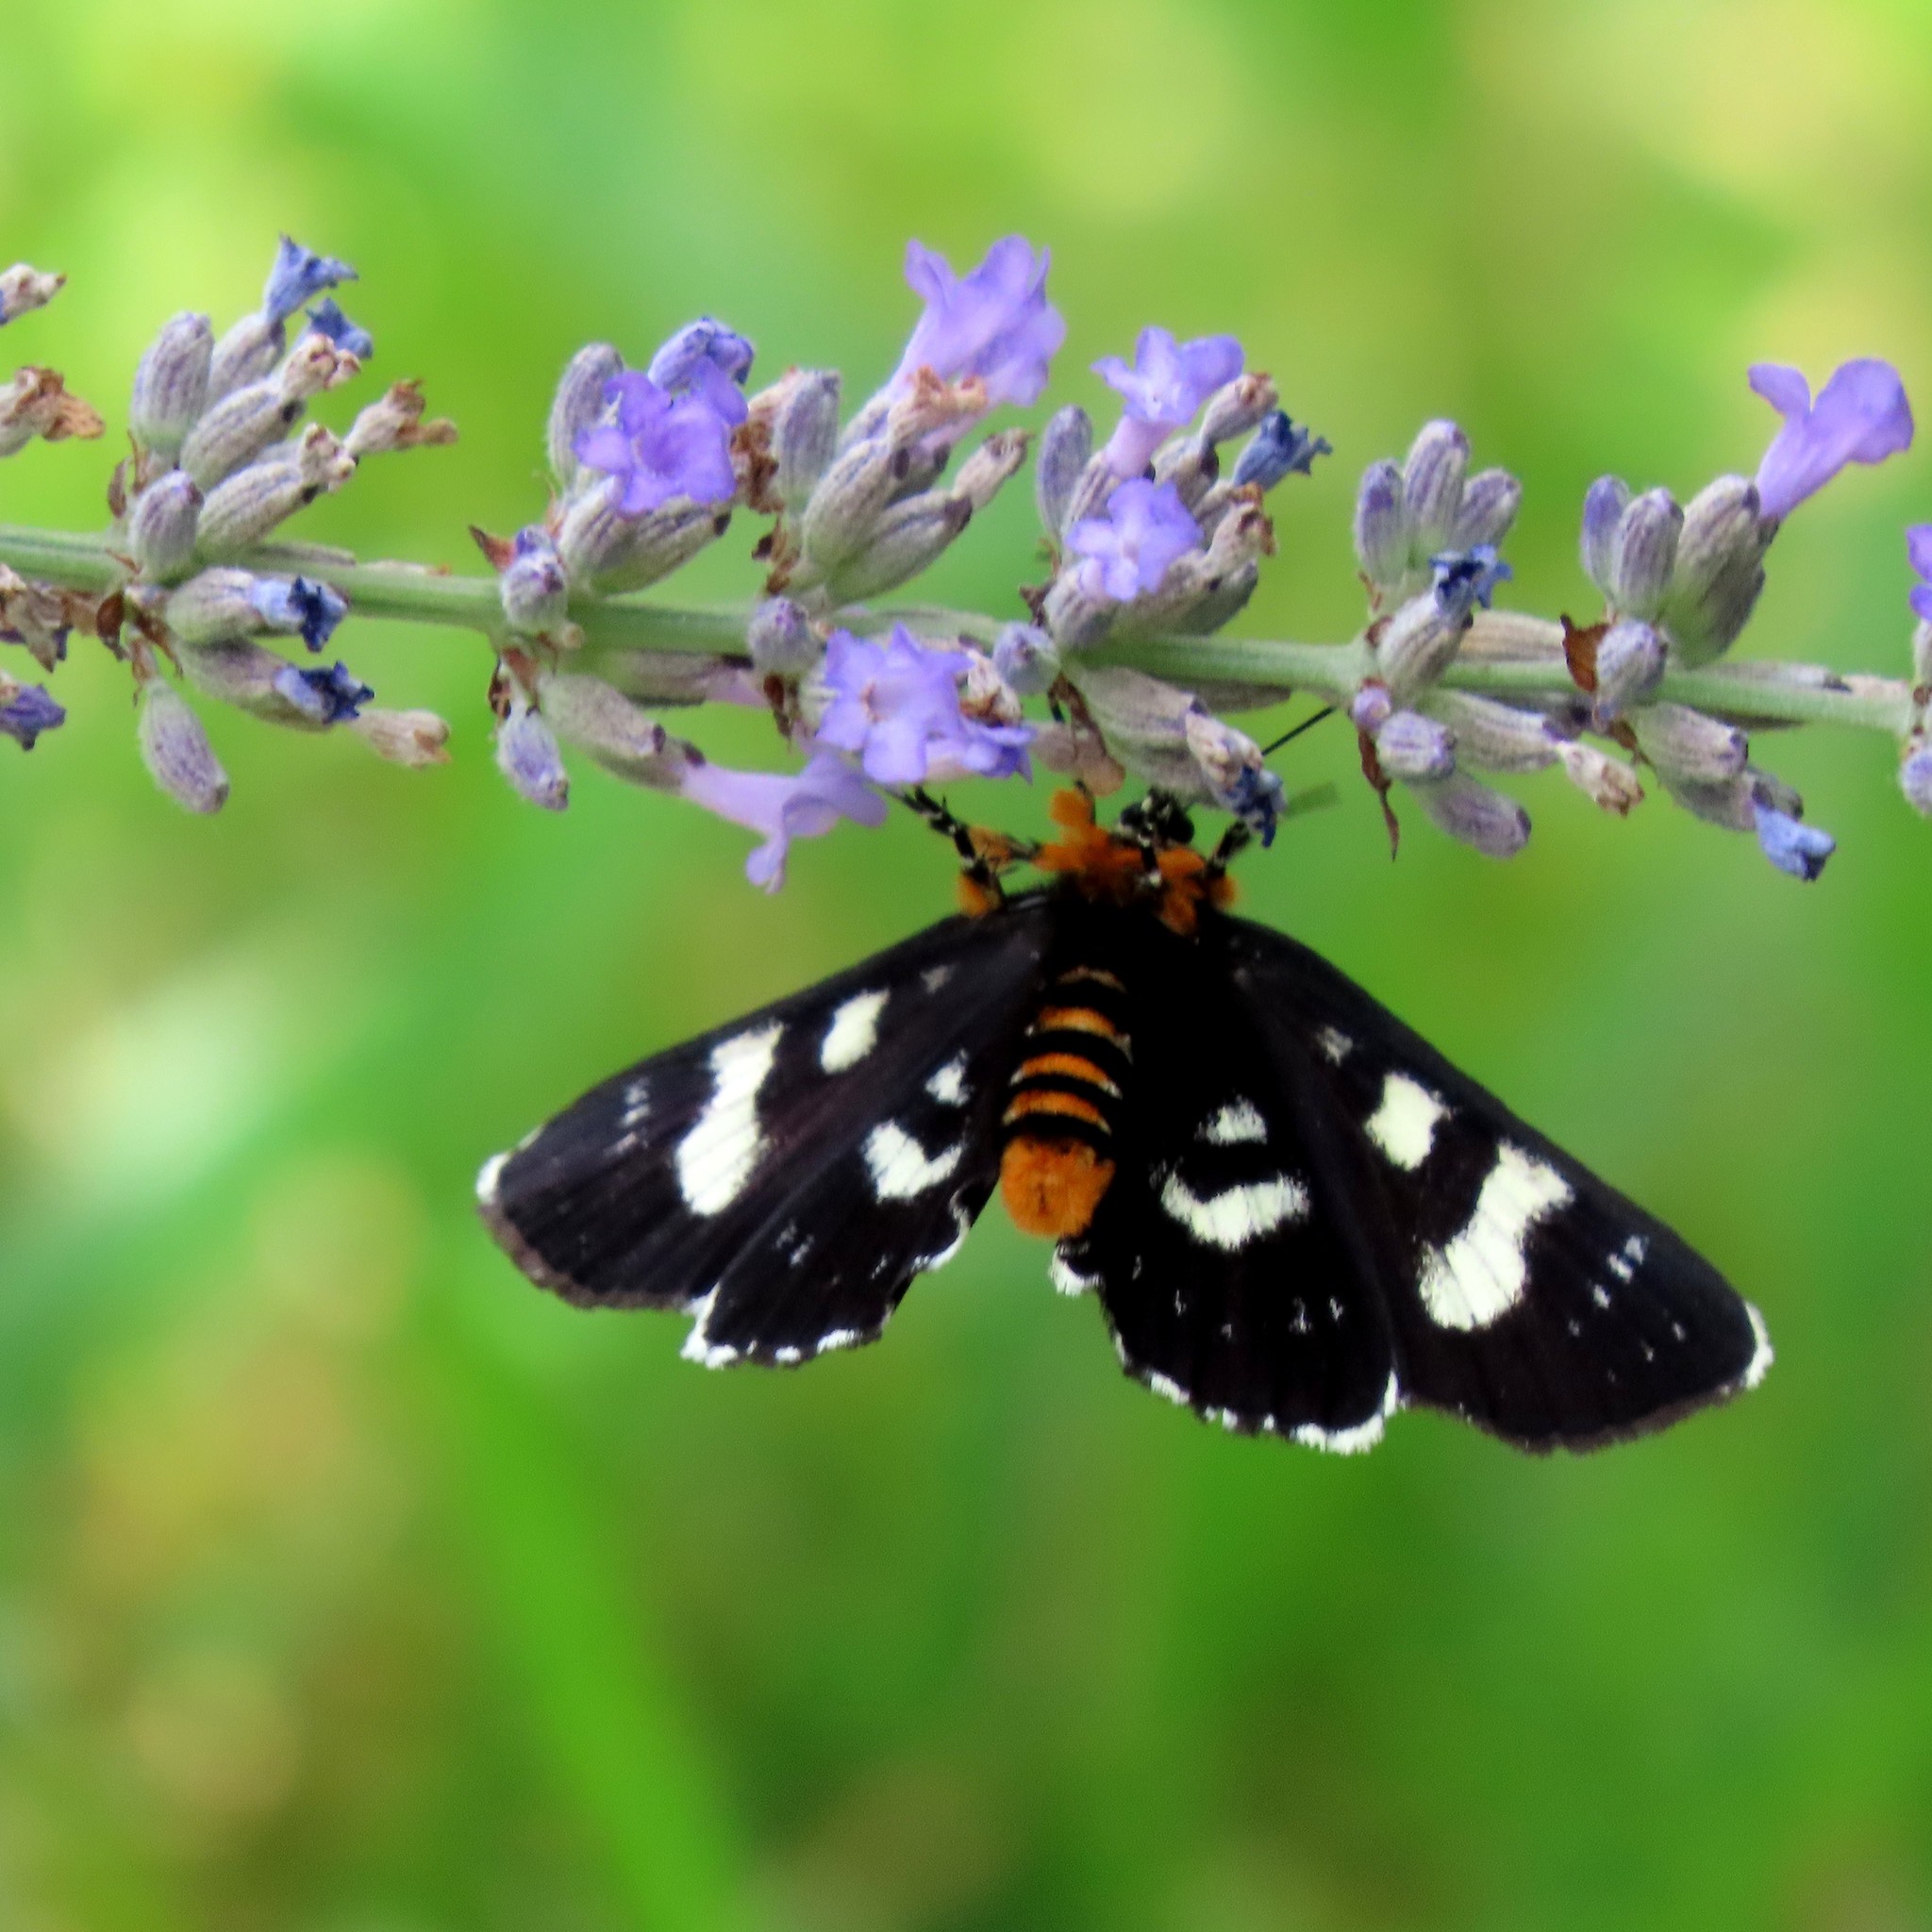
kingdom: Animalia
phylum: Arthropoda
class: Insecta
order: Lepidoptera
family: Noctuidae
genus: Phalaenoides
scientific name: Phalaenoides tristifica
